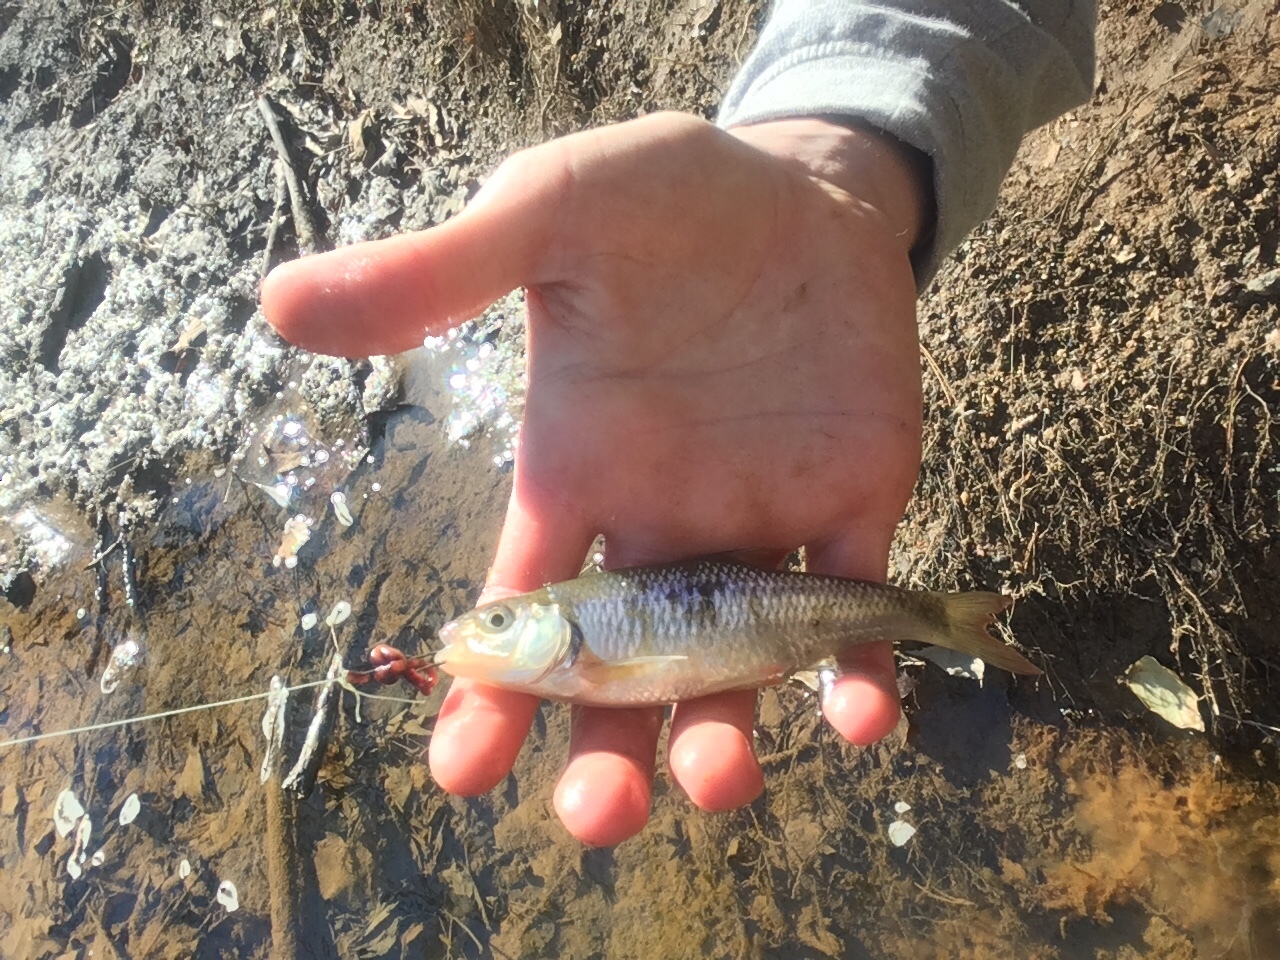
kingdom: Animalia
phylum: Chordata
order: Cypriniformes
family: Cyprinidae
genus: Luxilus
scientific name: Luxilus albeolus
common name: White shiner
